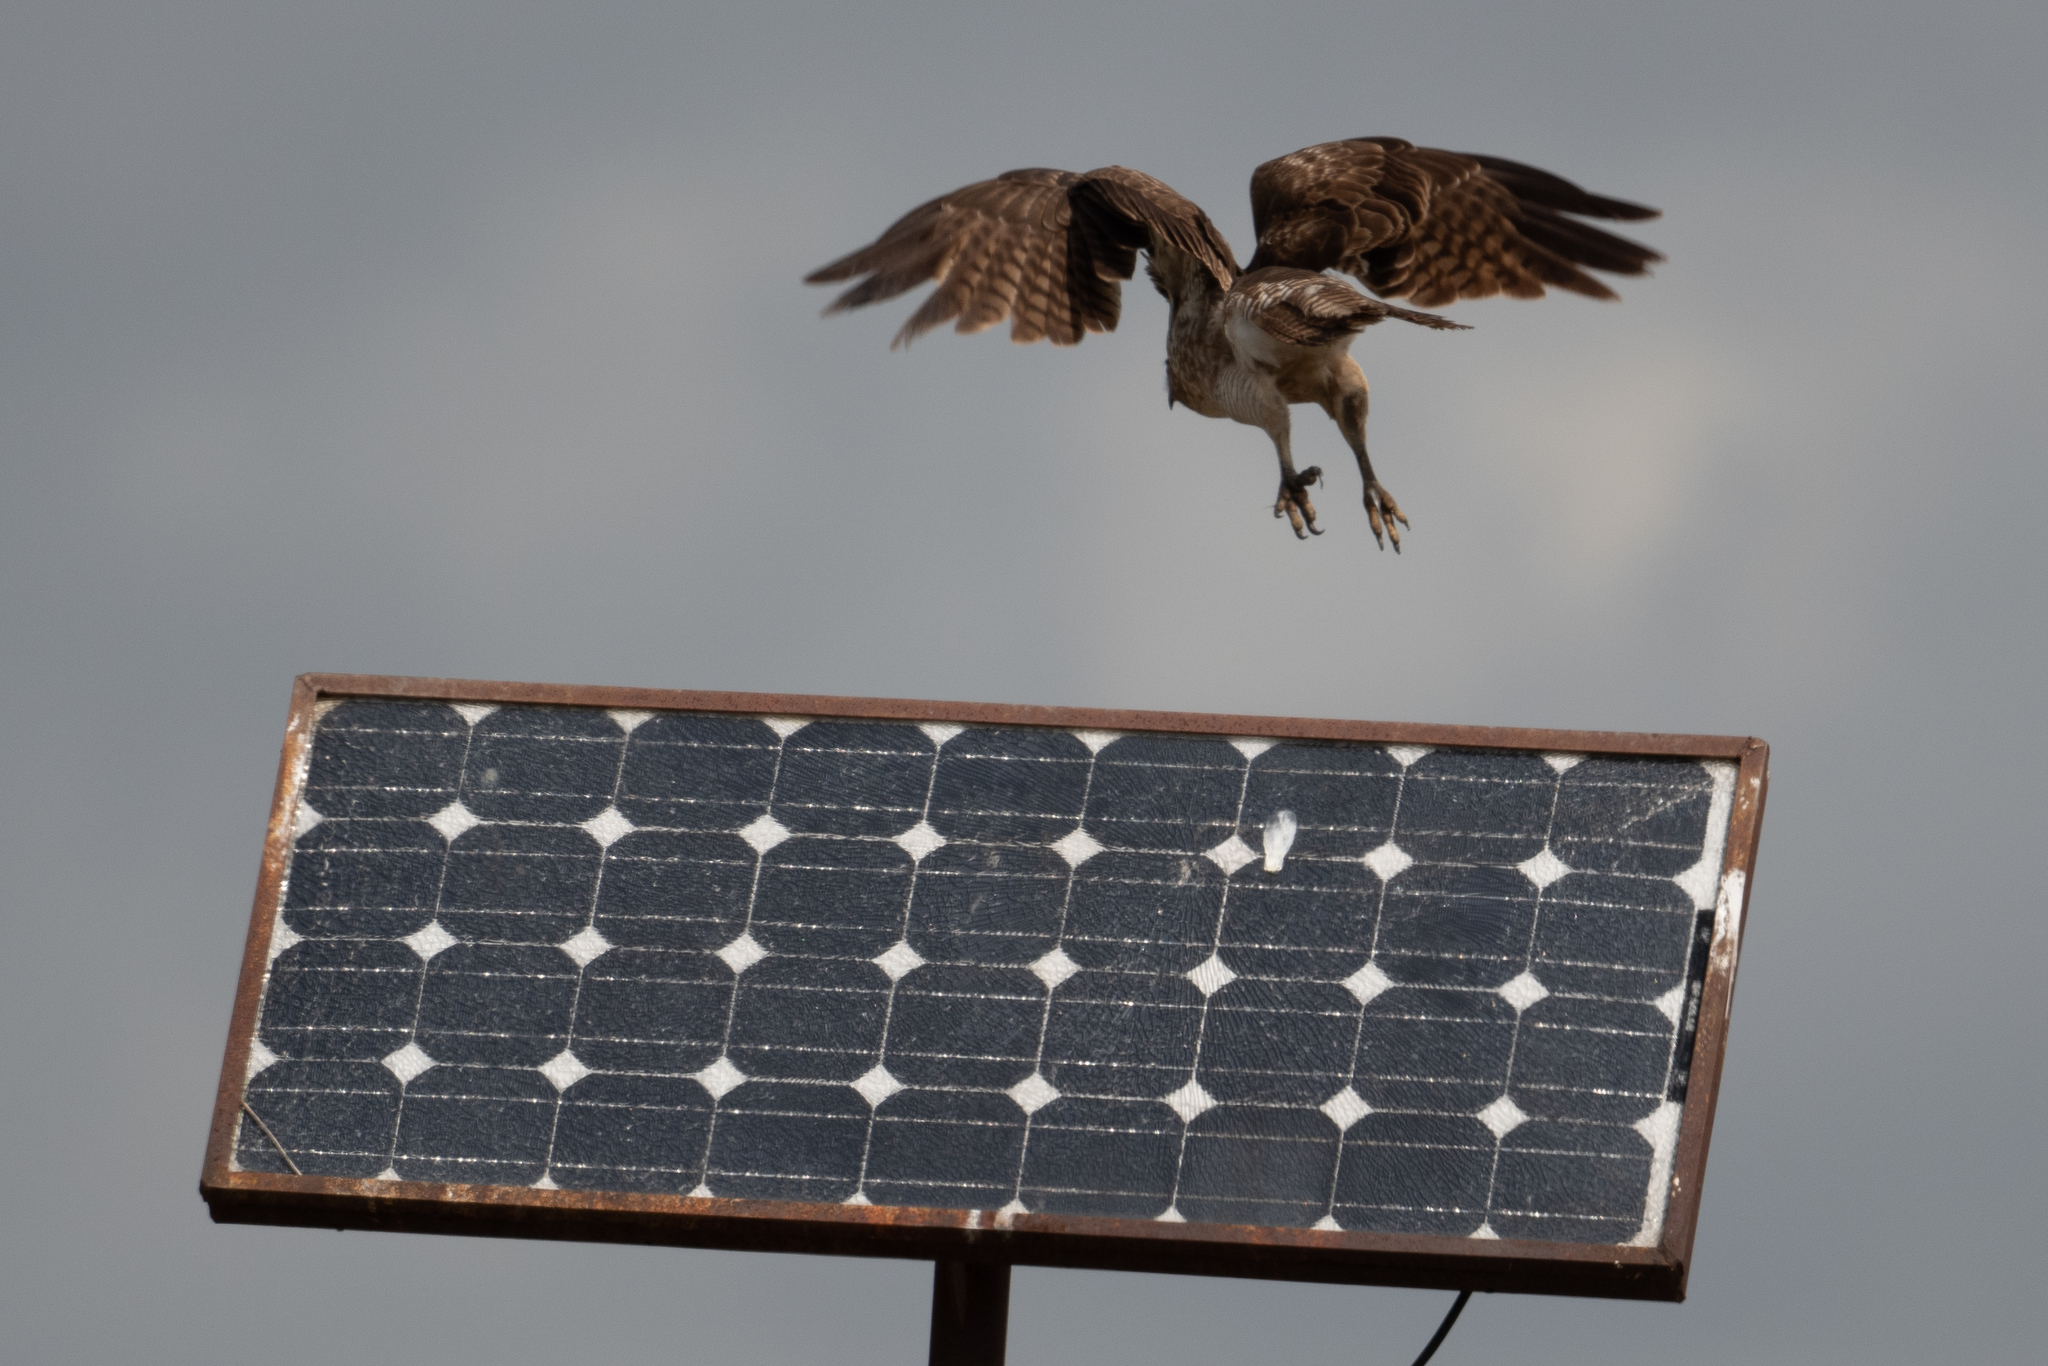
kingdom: Animalia
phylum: Chordata
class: Aves
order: Accipitriformes
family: Accipitridae
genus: Buteo
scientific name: Buteo jamaicensis
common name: Red-tailed hawk
